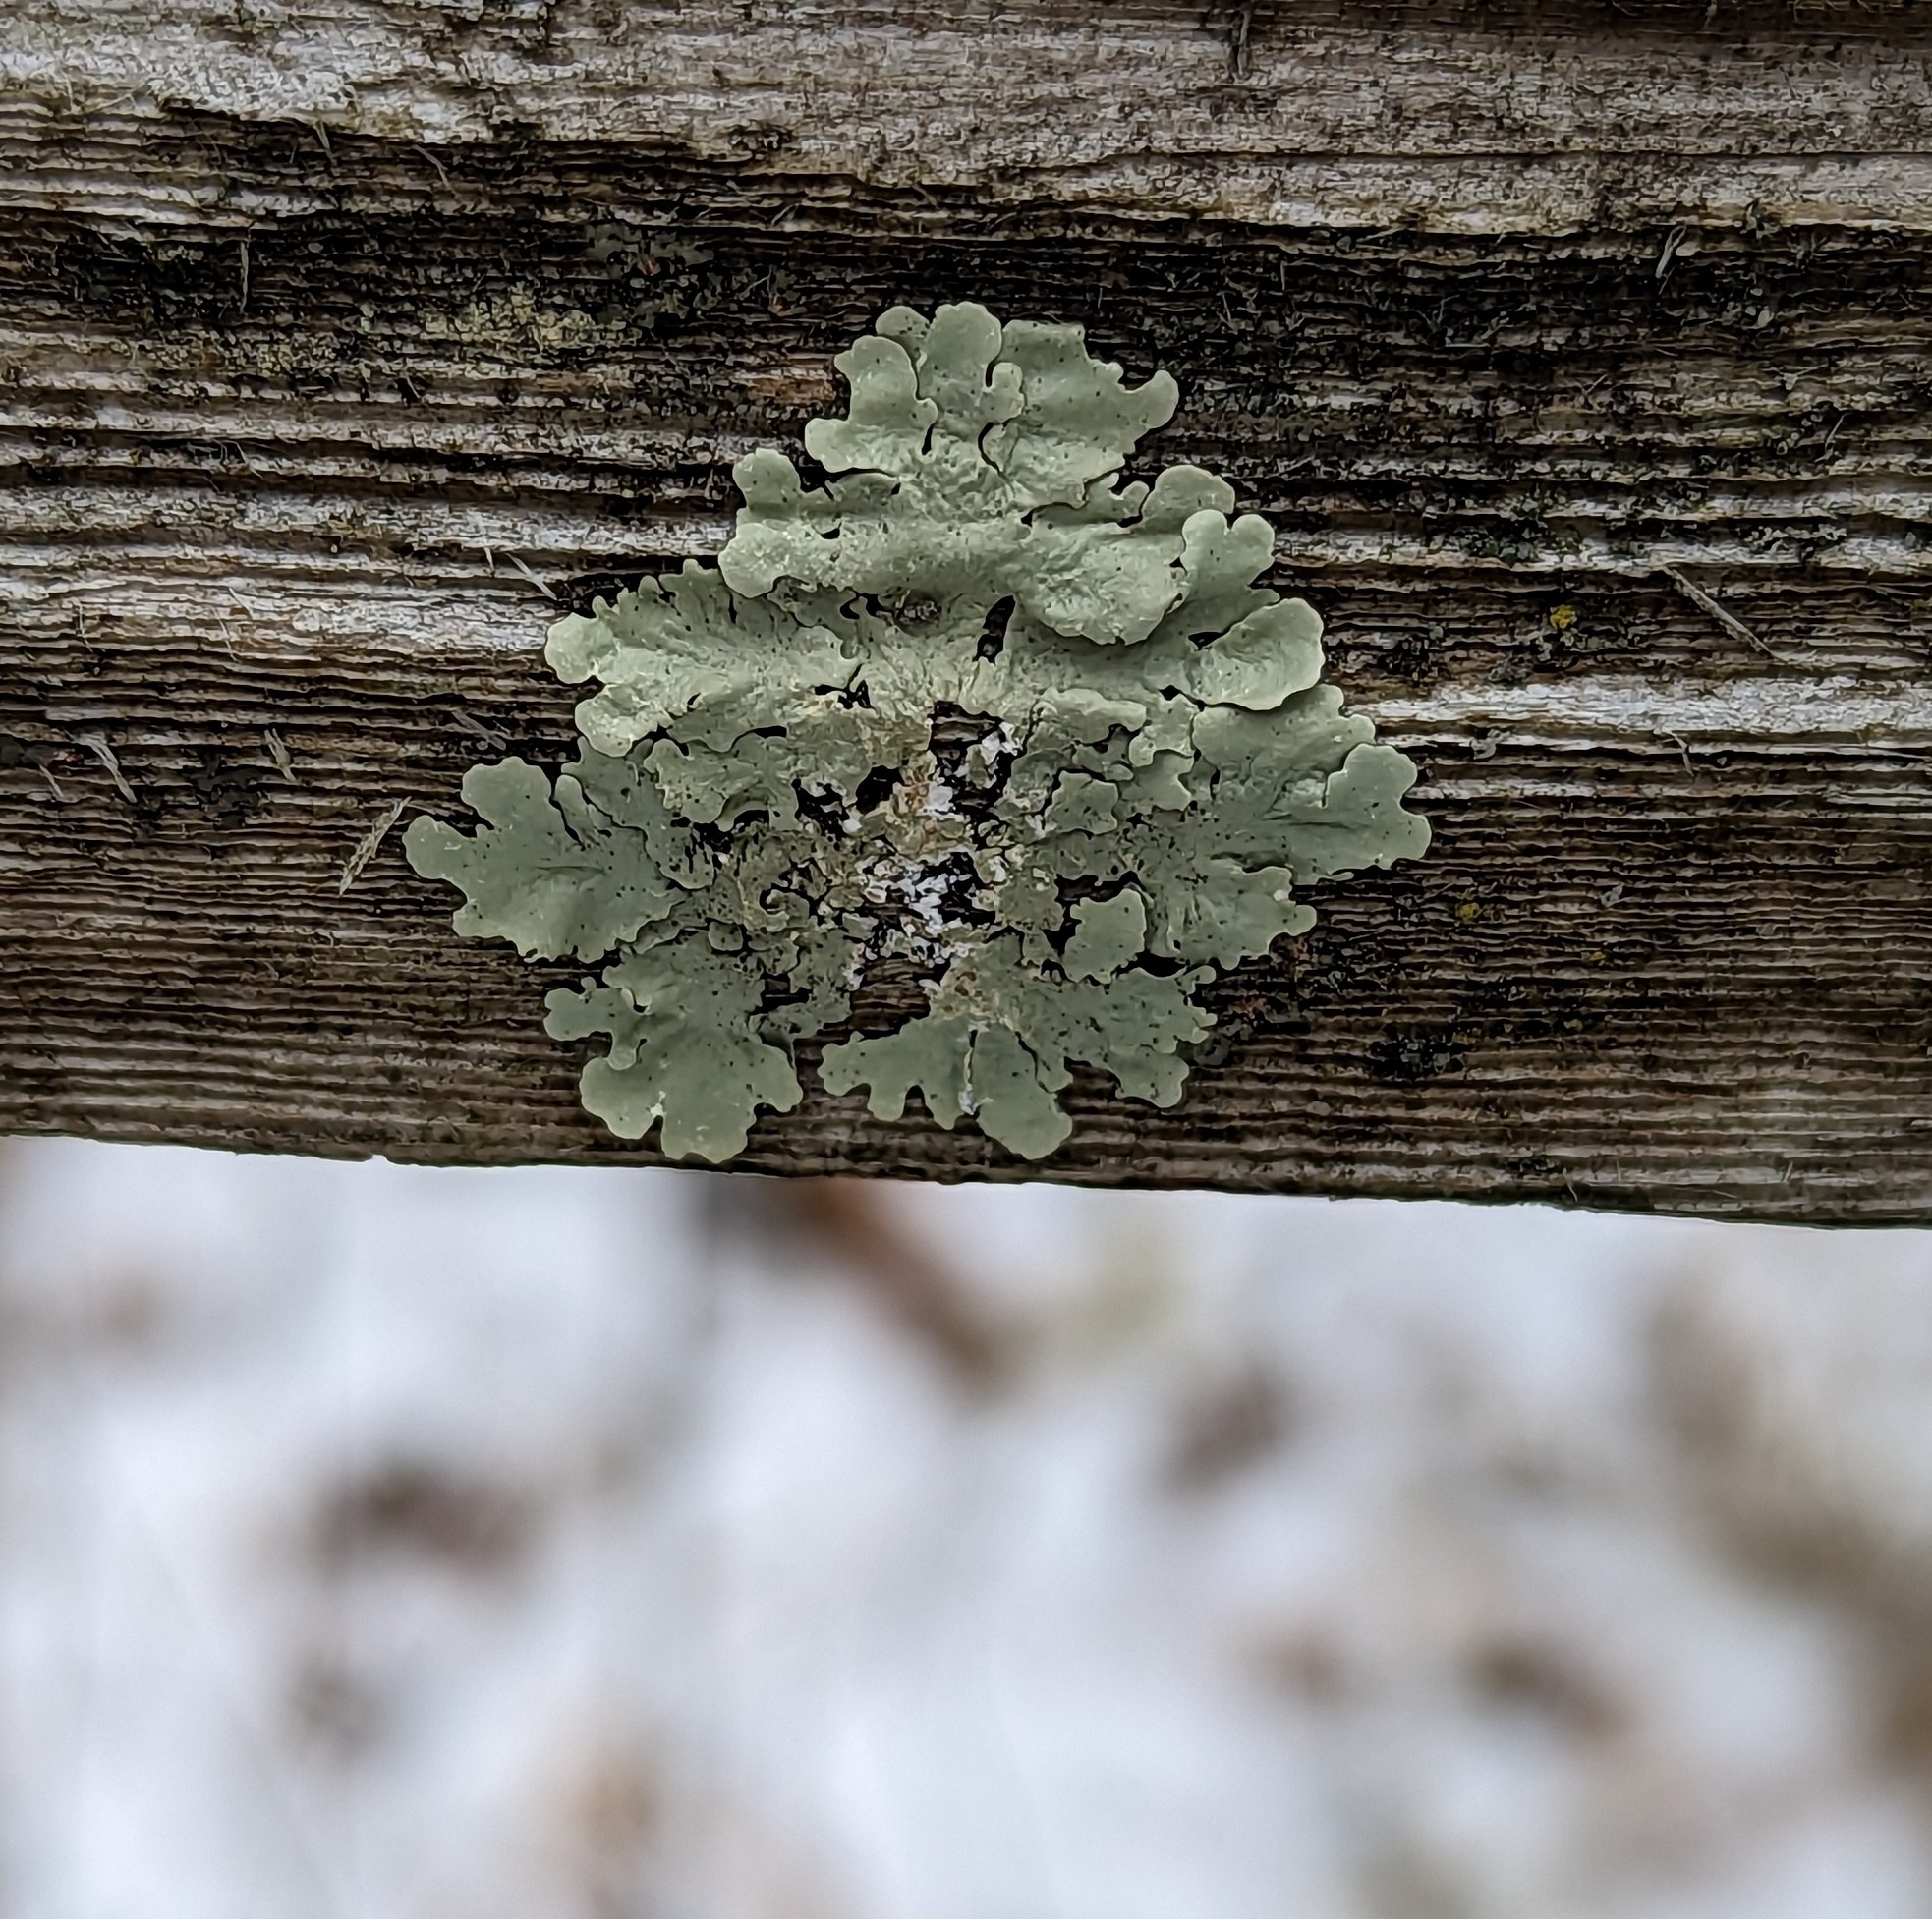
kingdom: Fungi
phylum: Ascomycota
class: Lecanoromycetes
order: Lecanorales
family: Parmeliaceae
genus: Flavoparmelia
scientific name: Flavoparmelia caperata
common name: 40-mile per hour lichen
